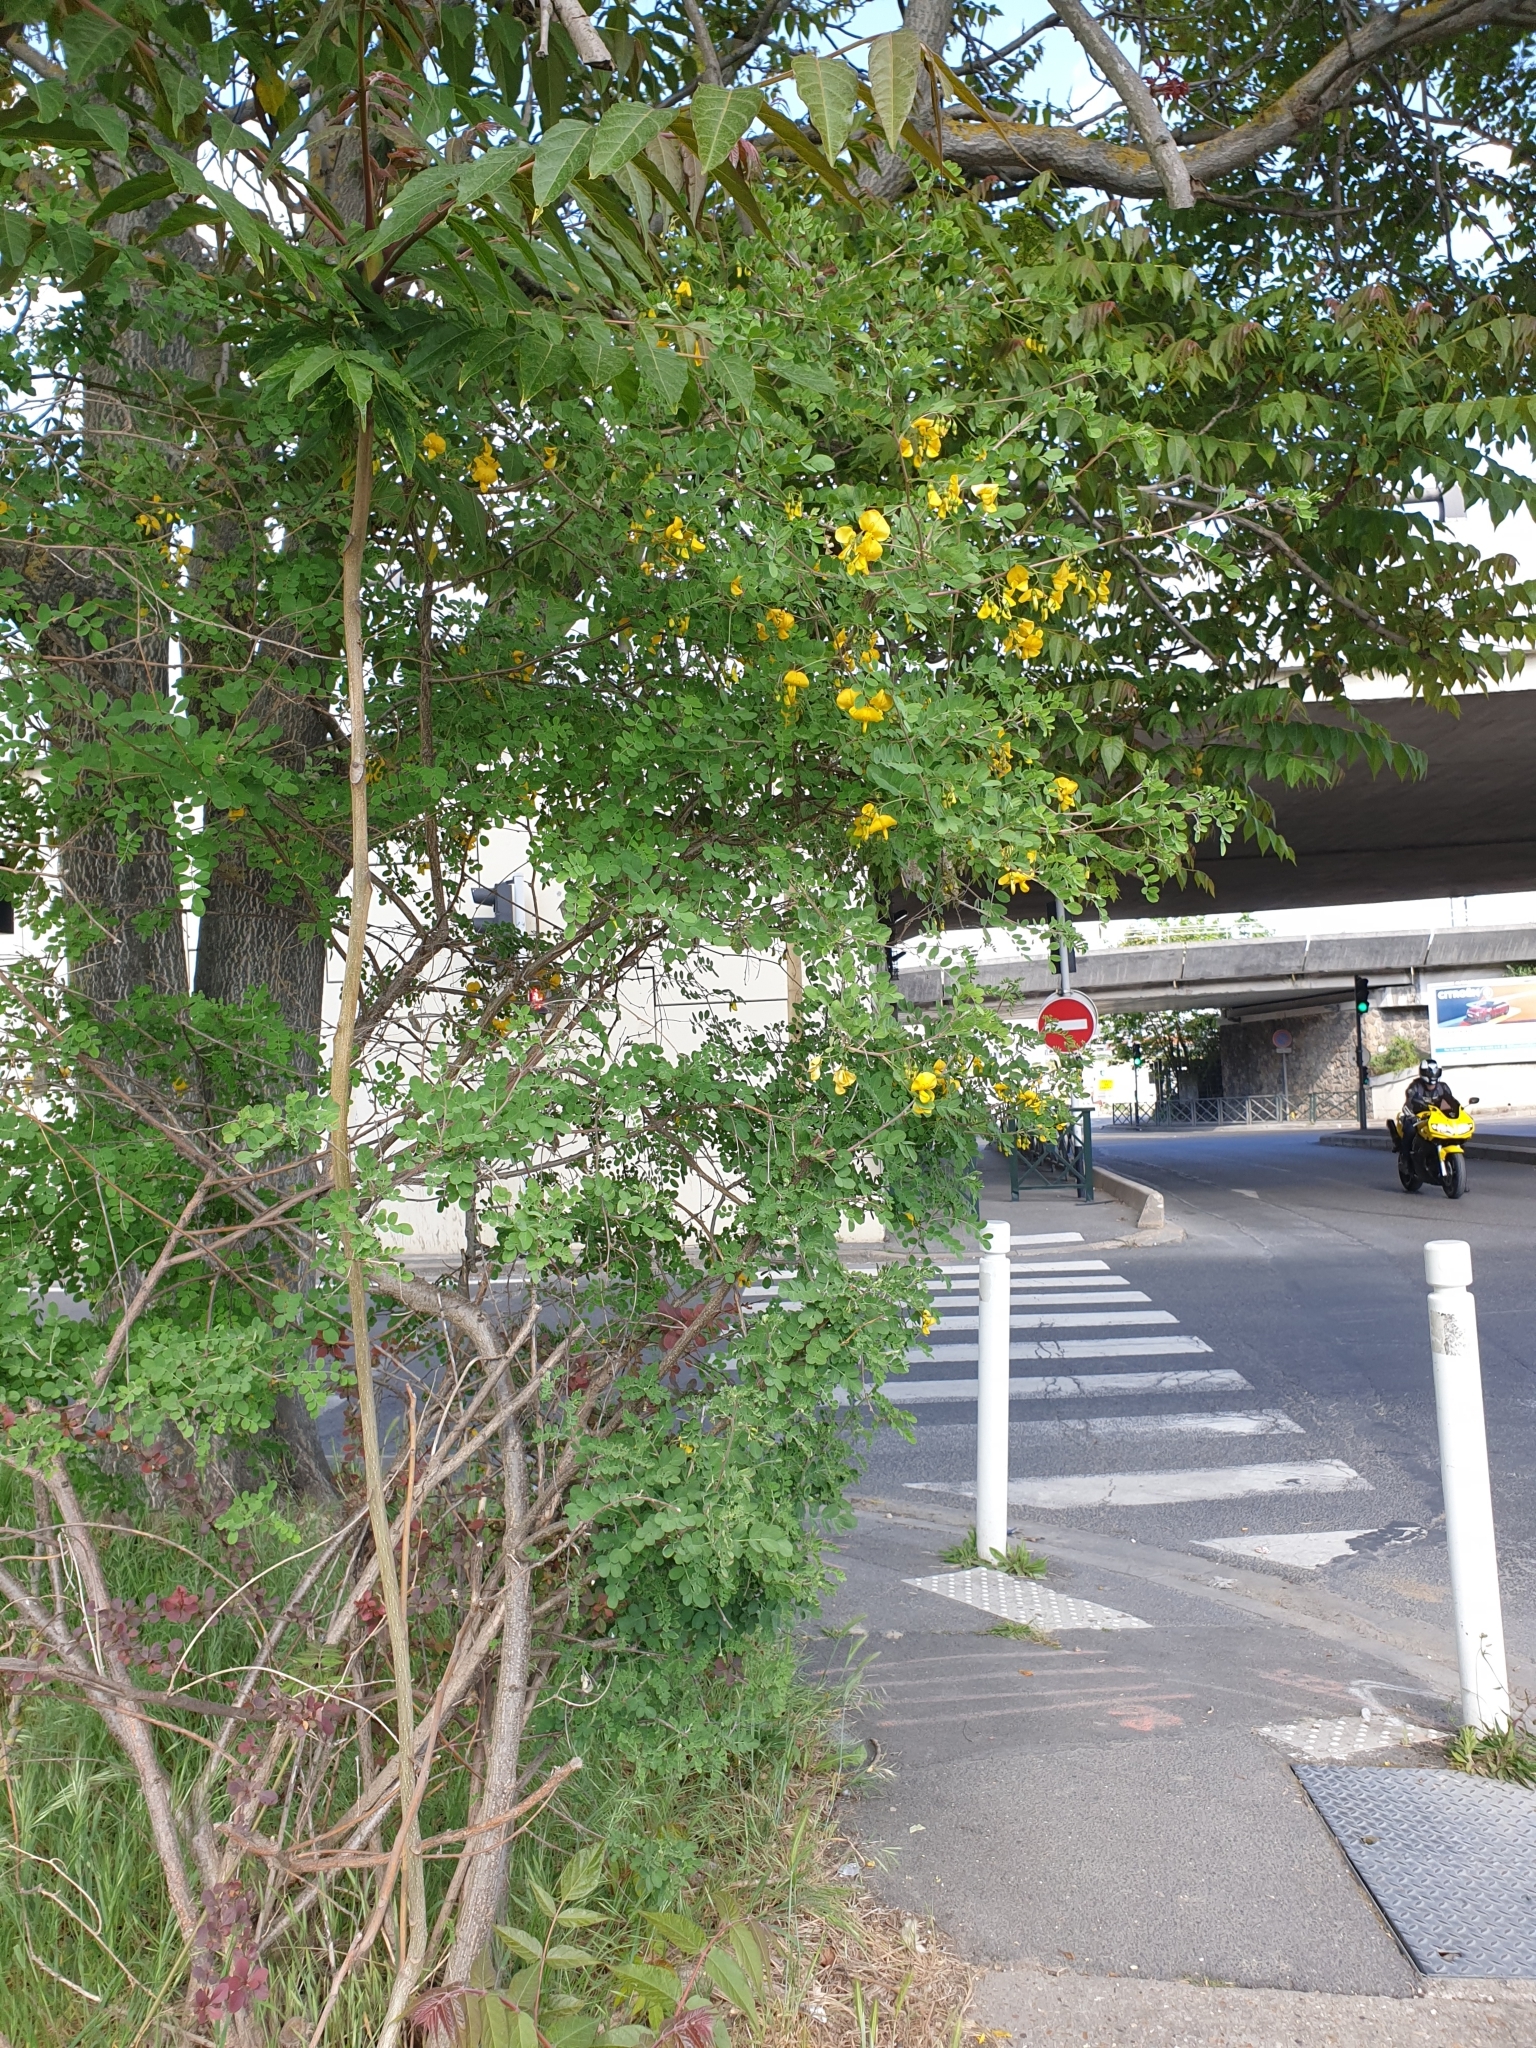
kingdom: Plantae
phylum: Tracheophyta
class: Magnoliopsida
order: Fabales
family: Fabaceae
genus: Colutea
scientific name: Colutea arborescens
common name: Bladder-senna
